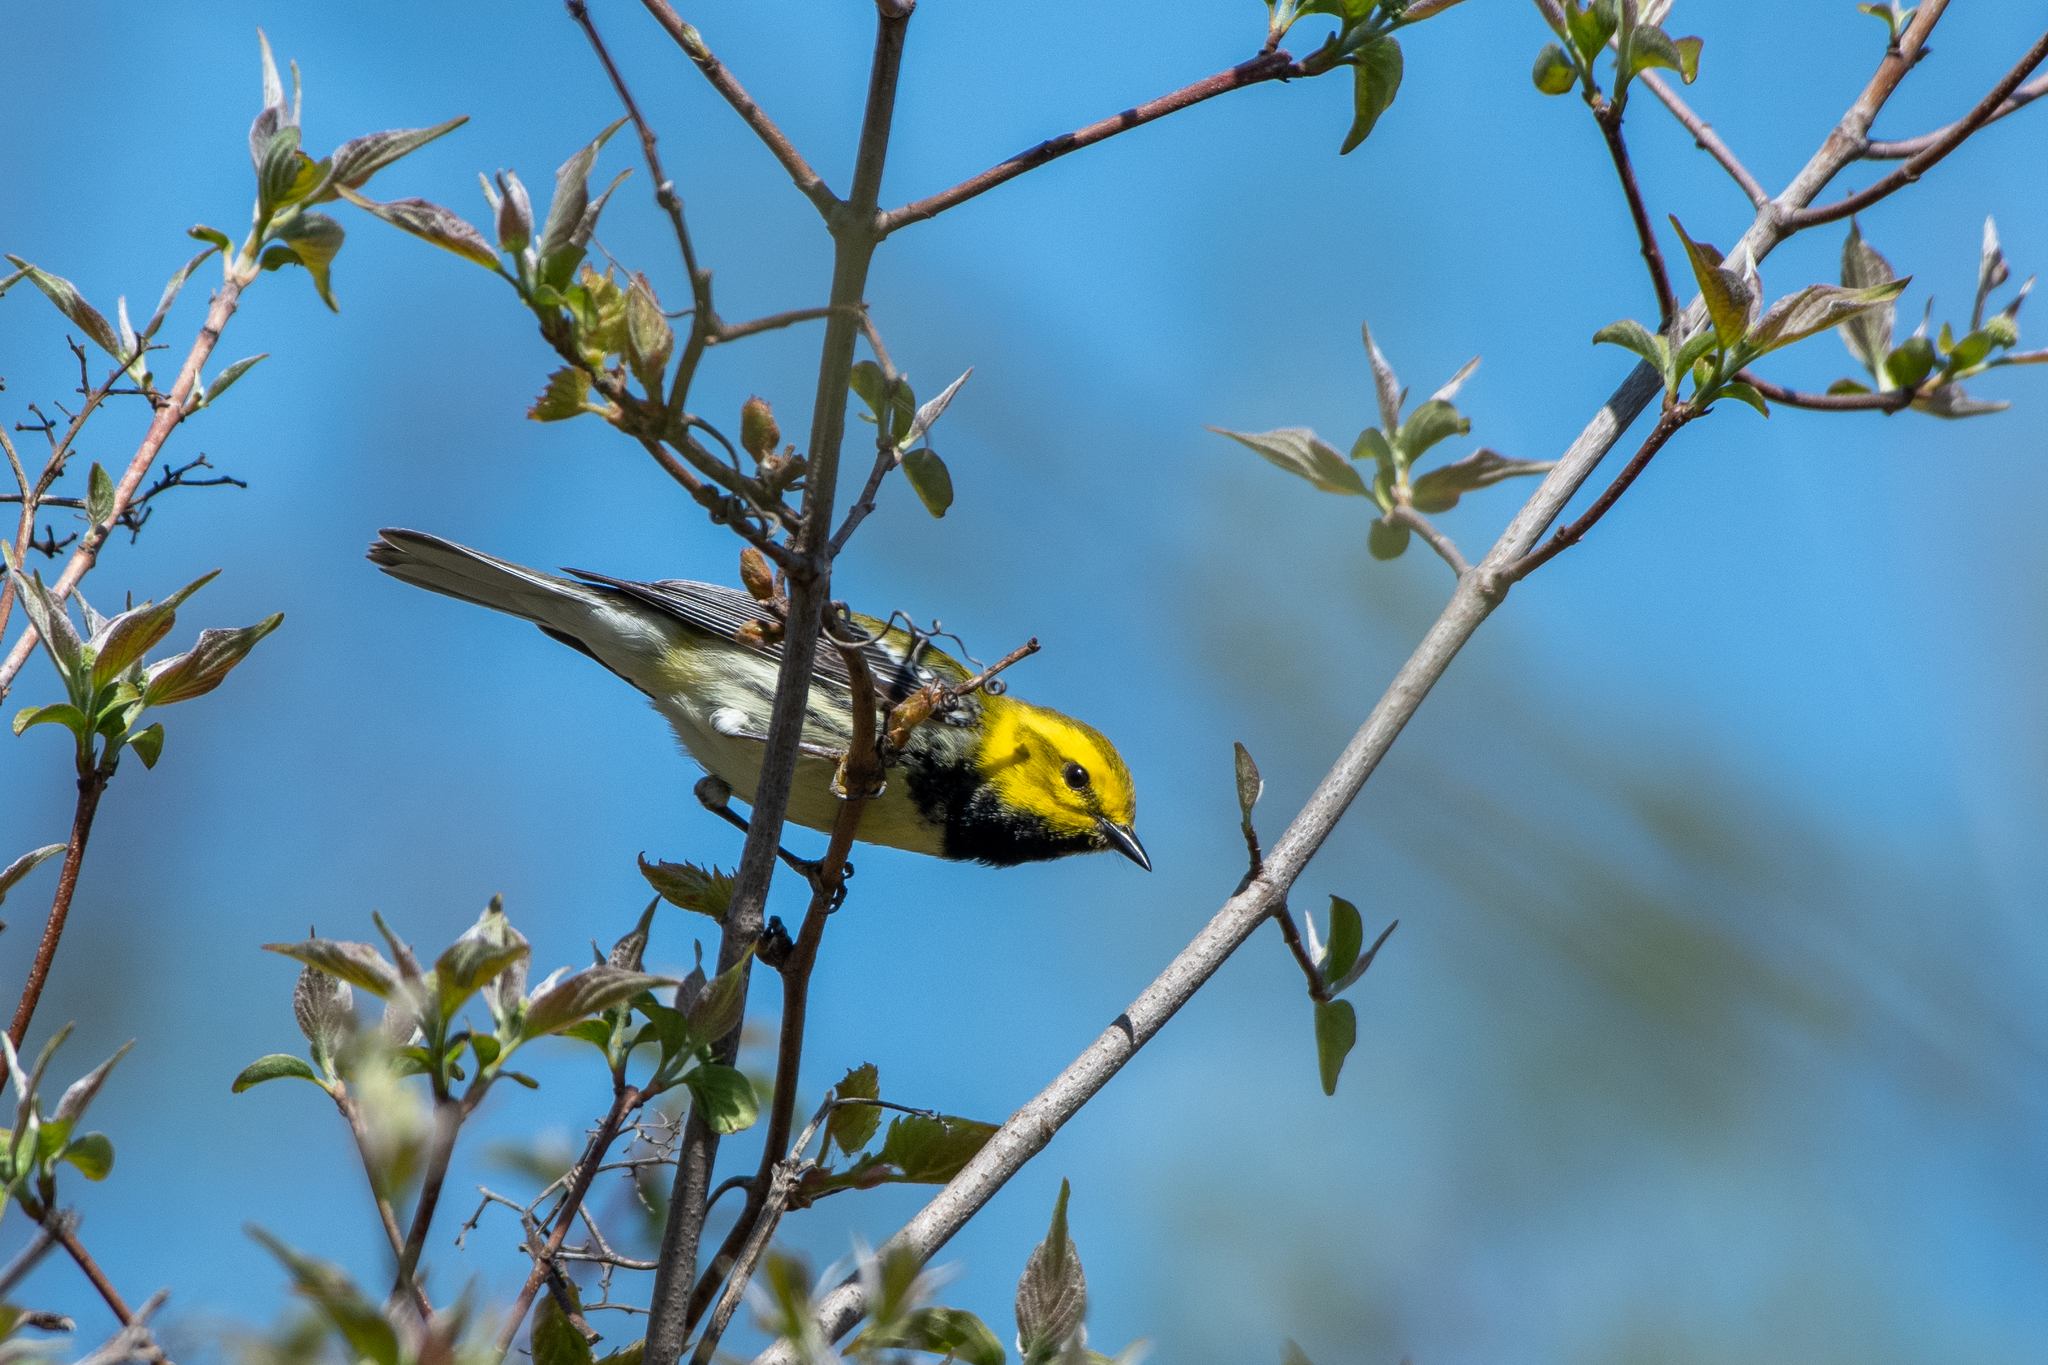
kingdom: Animalia
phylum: Chordata
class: Aves
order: Passeriformes
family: Parulidae
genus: Setophaga
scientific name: Setophaga virens
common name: Black-throated green warbler
